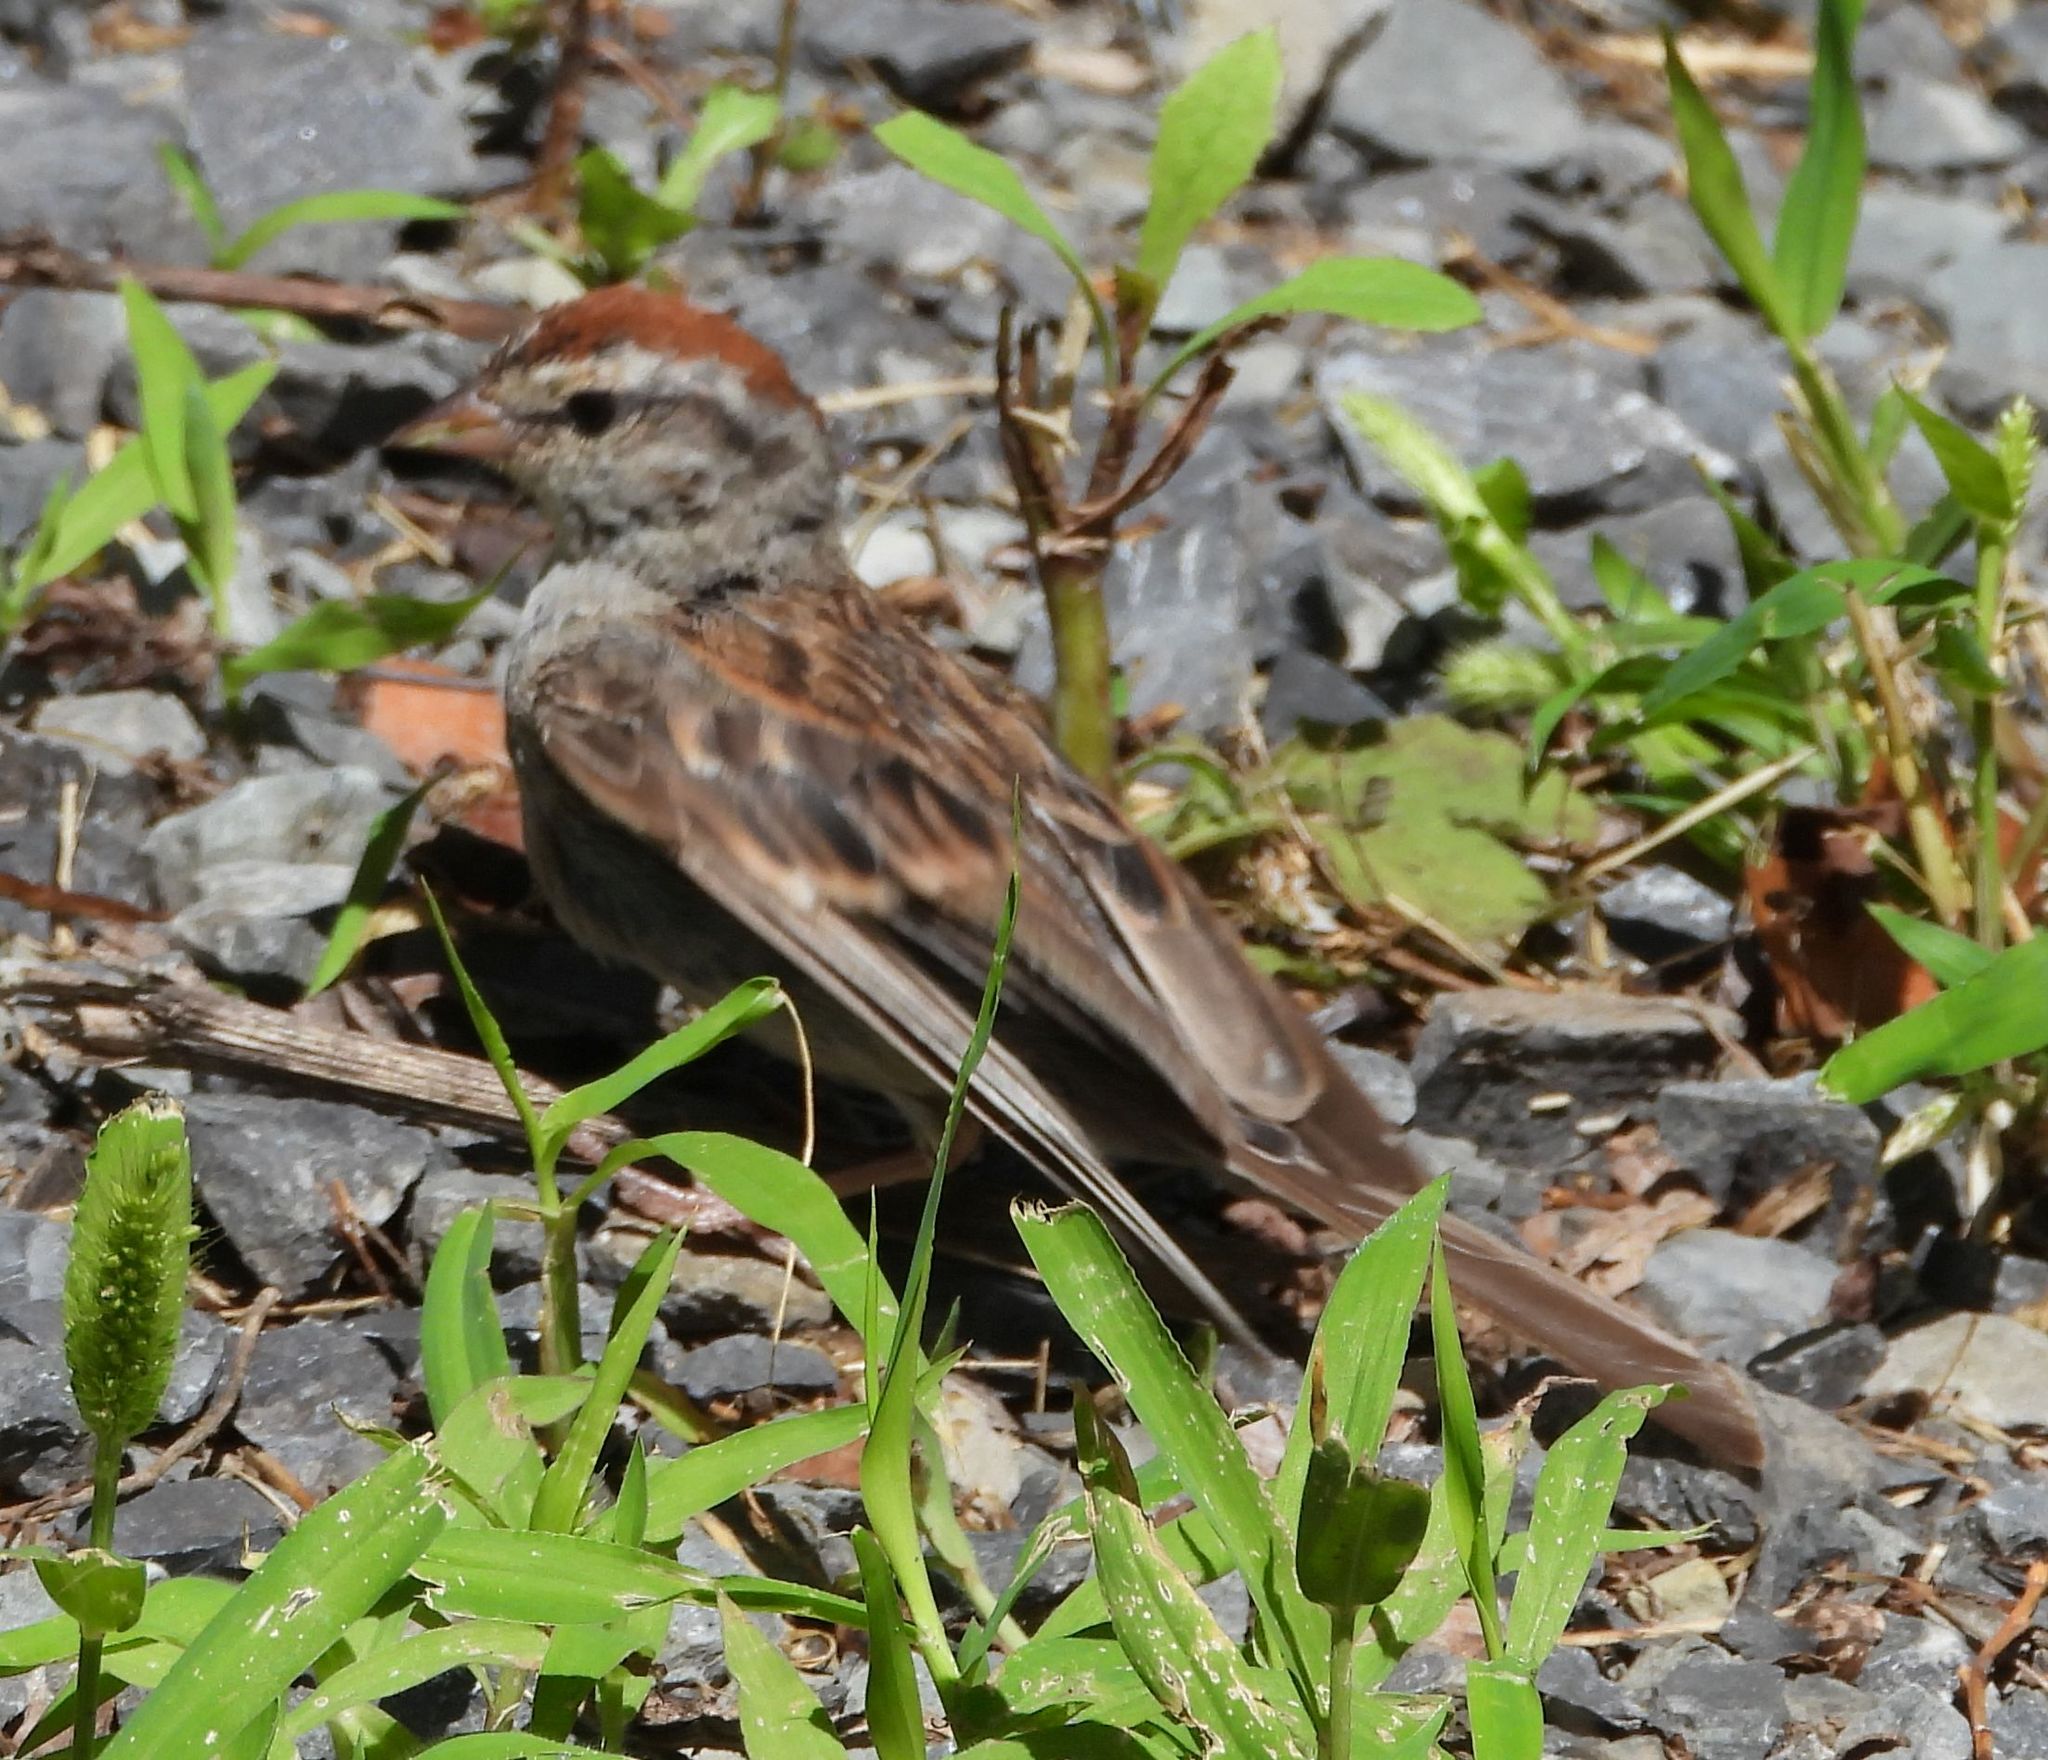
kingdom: Animalia
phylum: Chordata
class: Aves
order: Passeriformes
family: Passerellidae
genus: Spizella
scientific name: Spizella passerina
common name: Chipping sparrow
